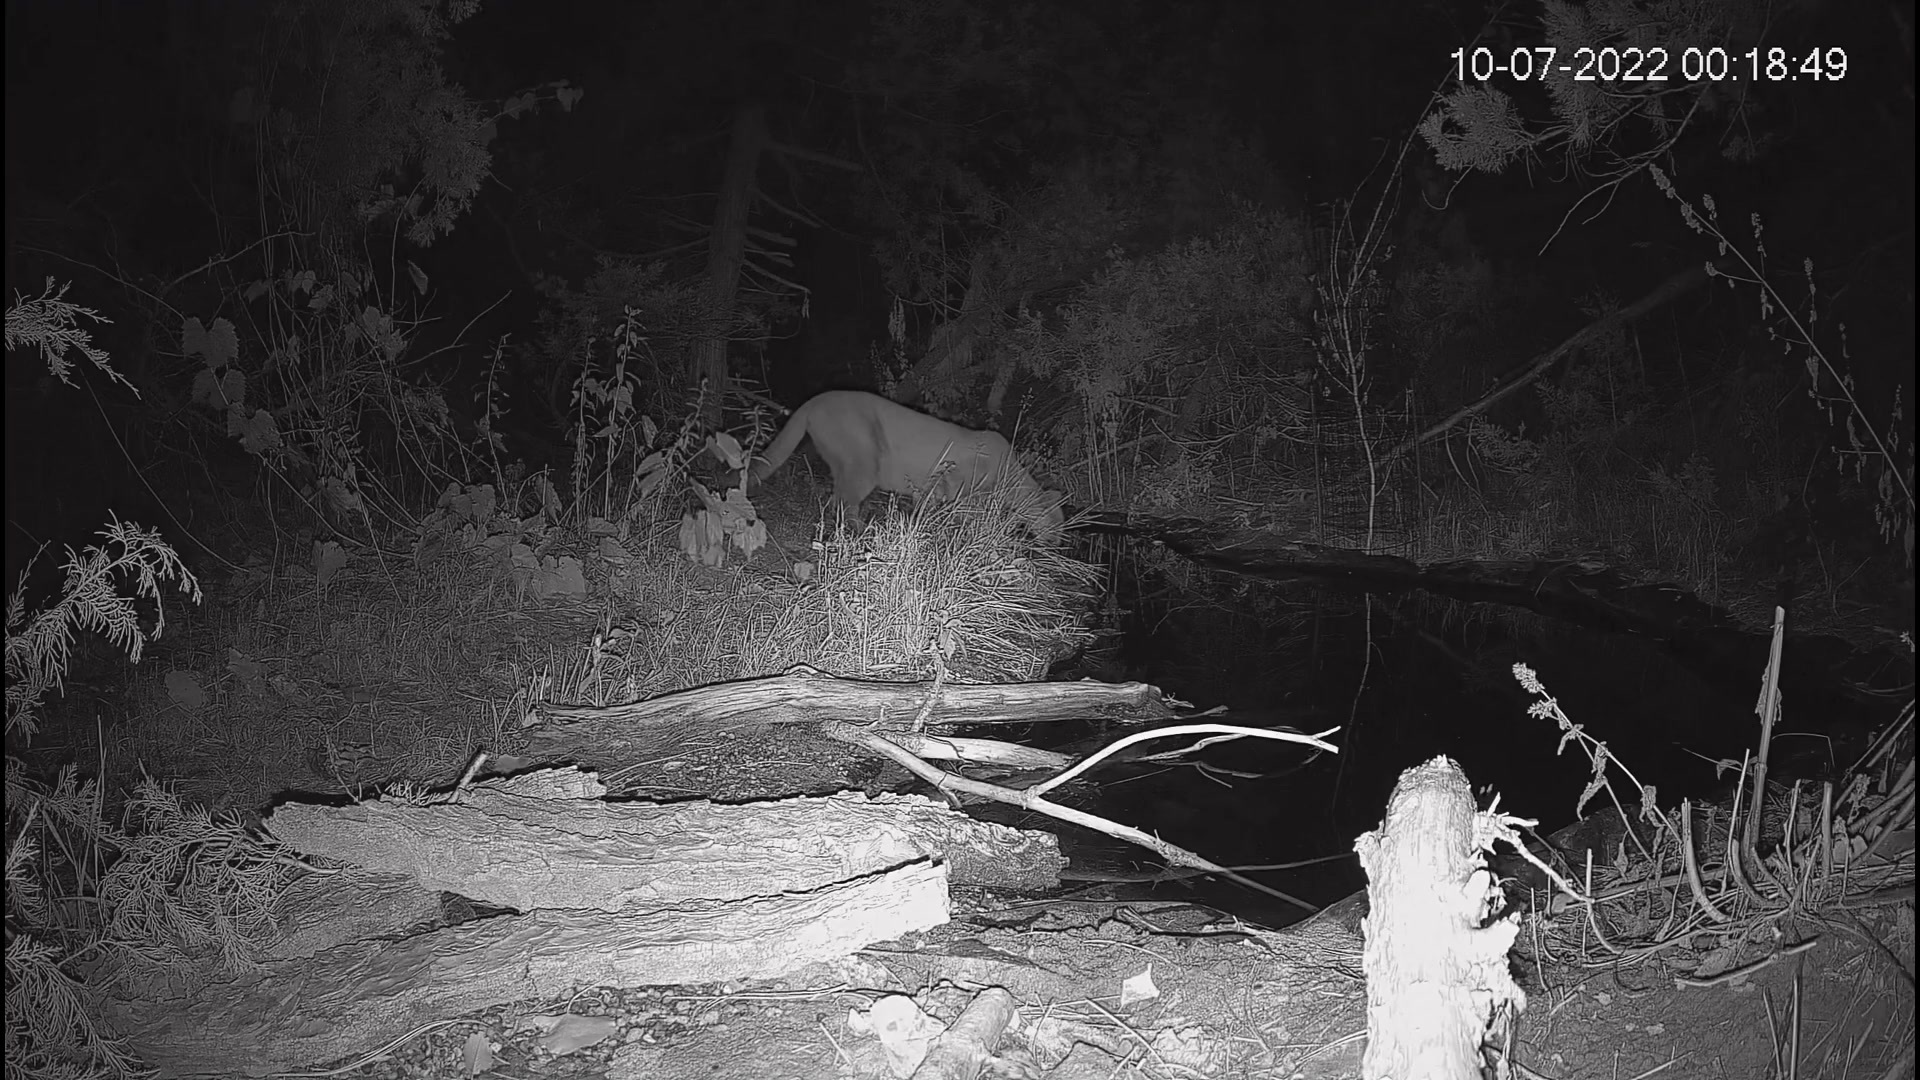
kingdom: Animalia
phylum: Chordata
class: Mammalia
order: Carnivora
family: Felidae
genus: Puma
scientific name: Puma concolor
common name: Puma
